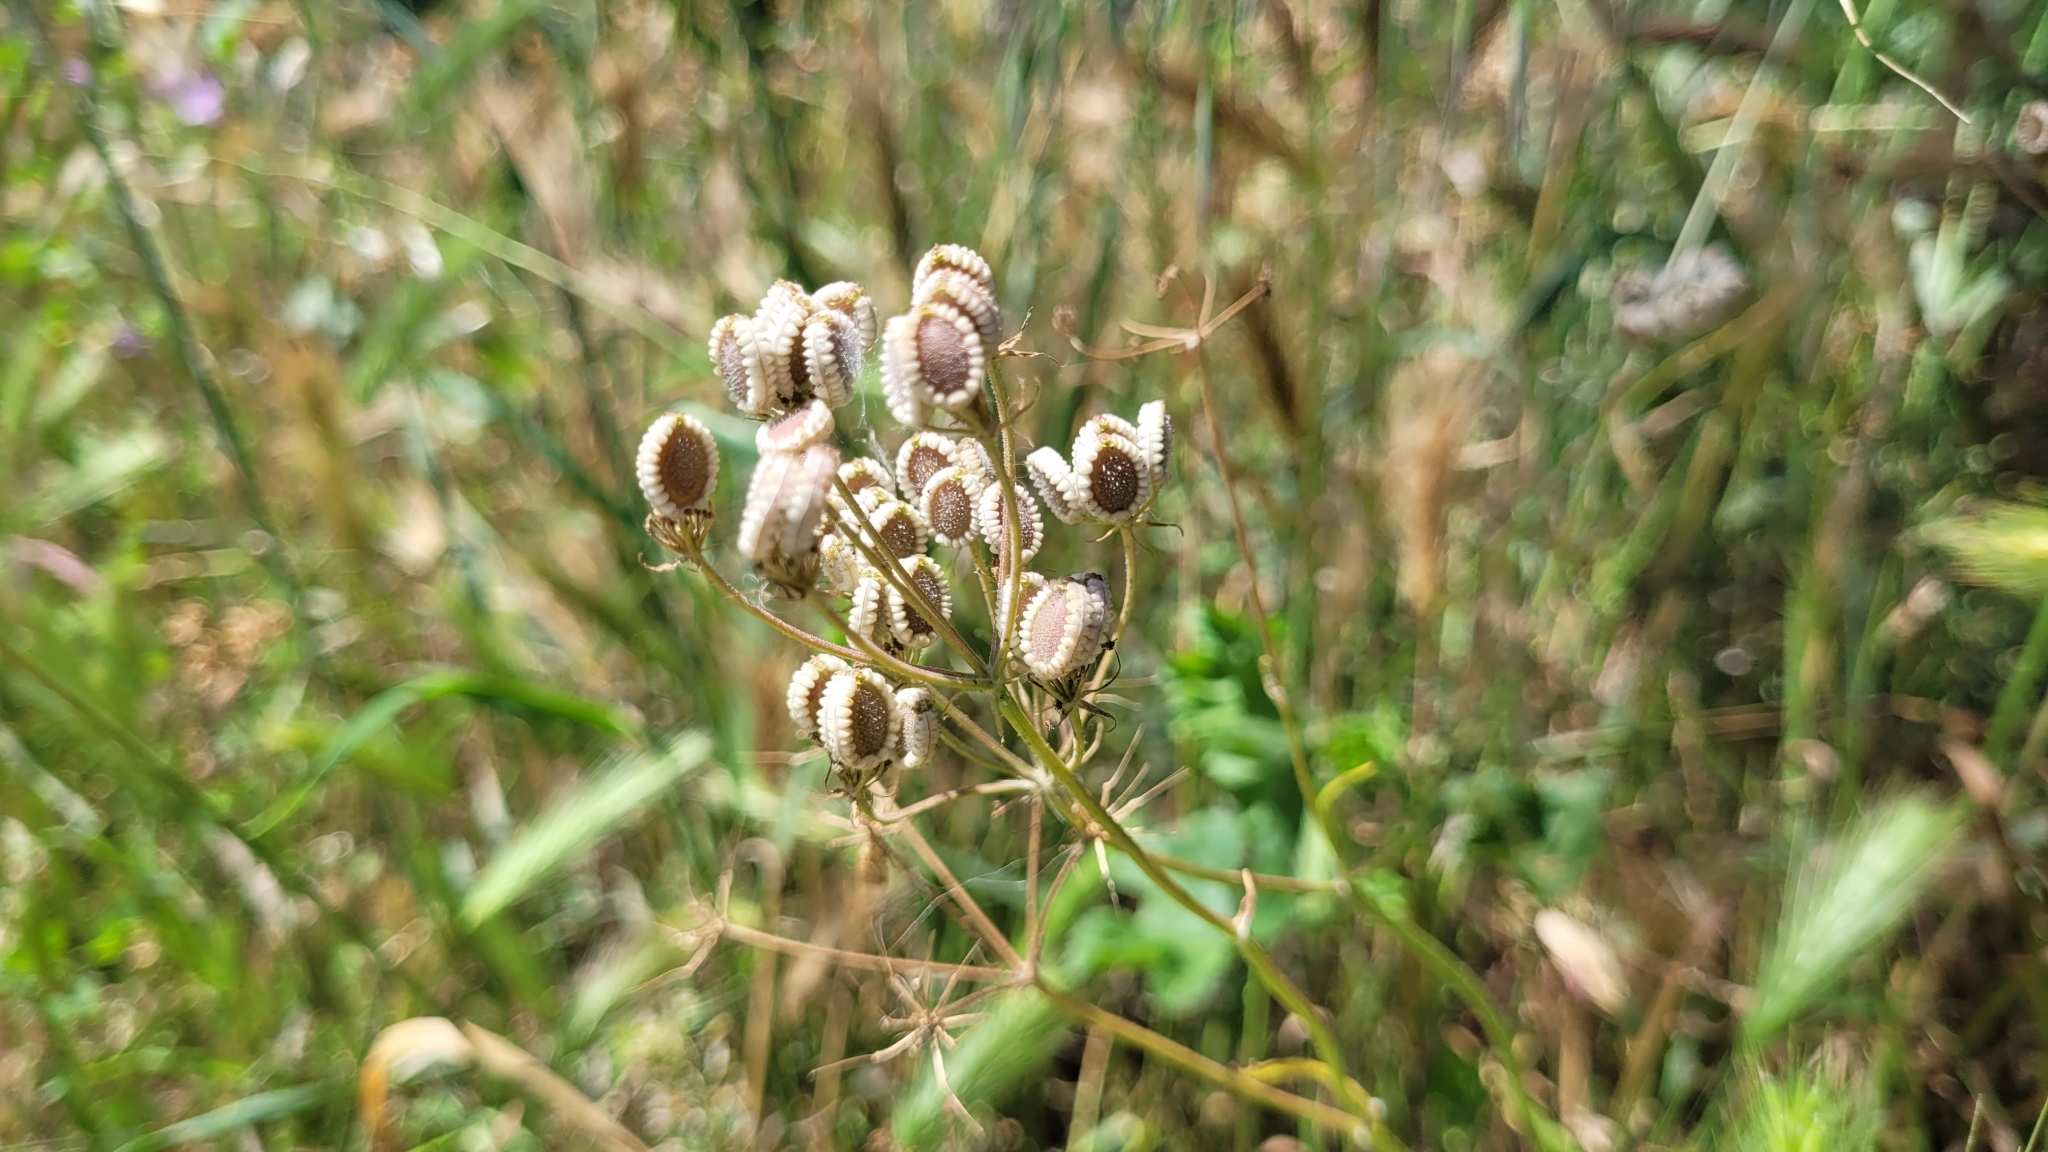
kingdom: Plantae
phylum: Tracheophyta
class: Magnoliopsida
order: Apiales
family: Apiaceae
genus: Tordylium
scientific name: Tordylium apulum
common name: Mediterranean hartwort
